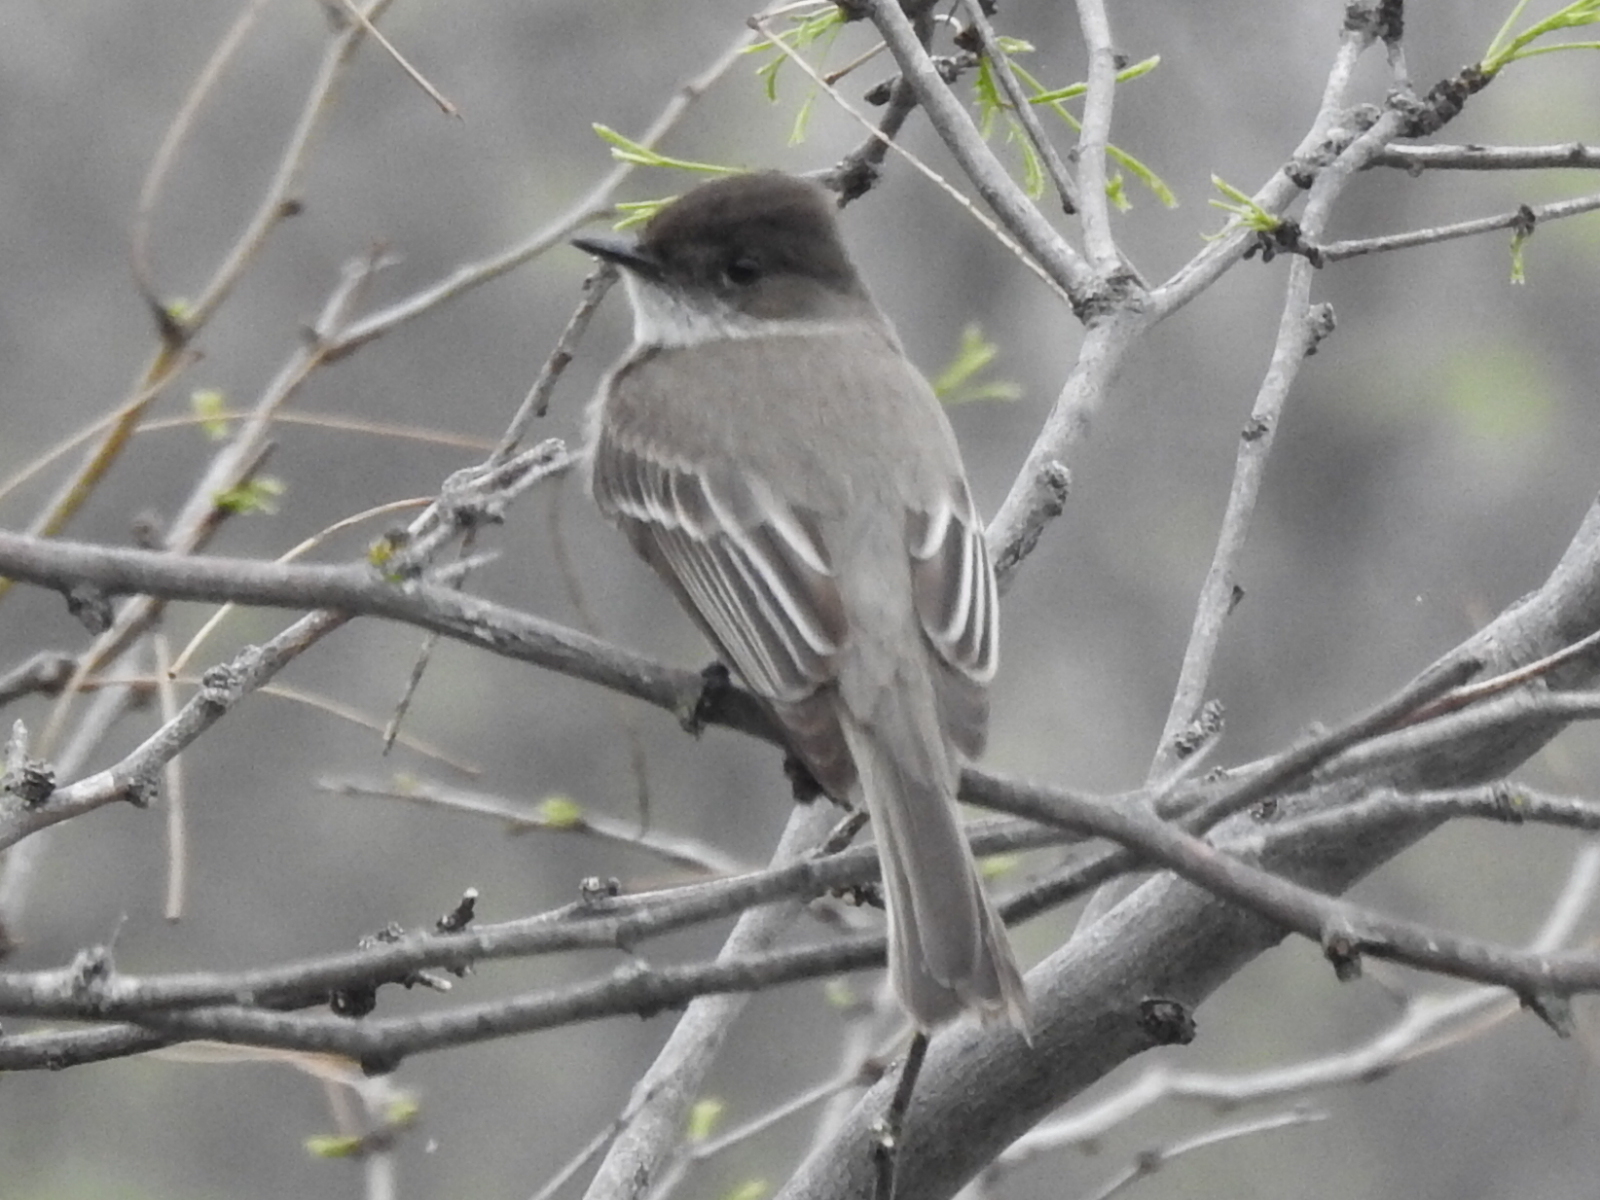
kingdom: Animalia
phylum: Chordata
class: Aves
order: Passeriformes
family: Tyrannidae
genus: Sayornis
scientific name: Sayornis phoebe
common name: Eastern phoebe
